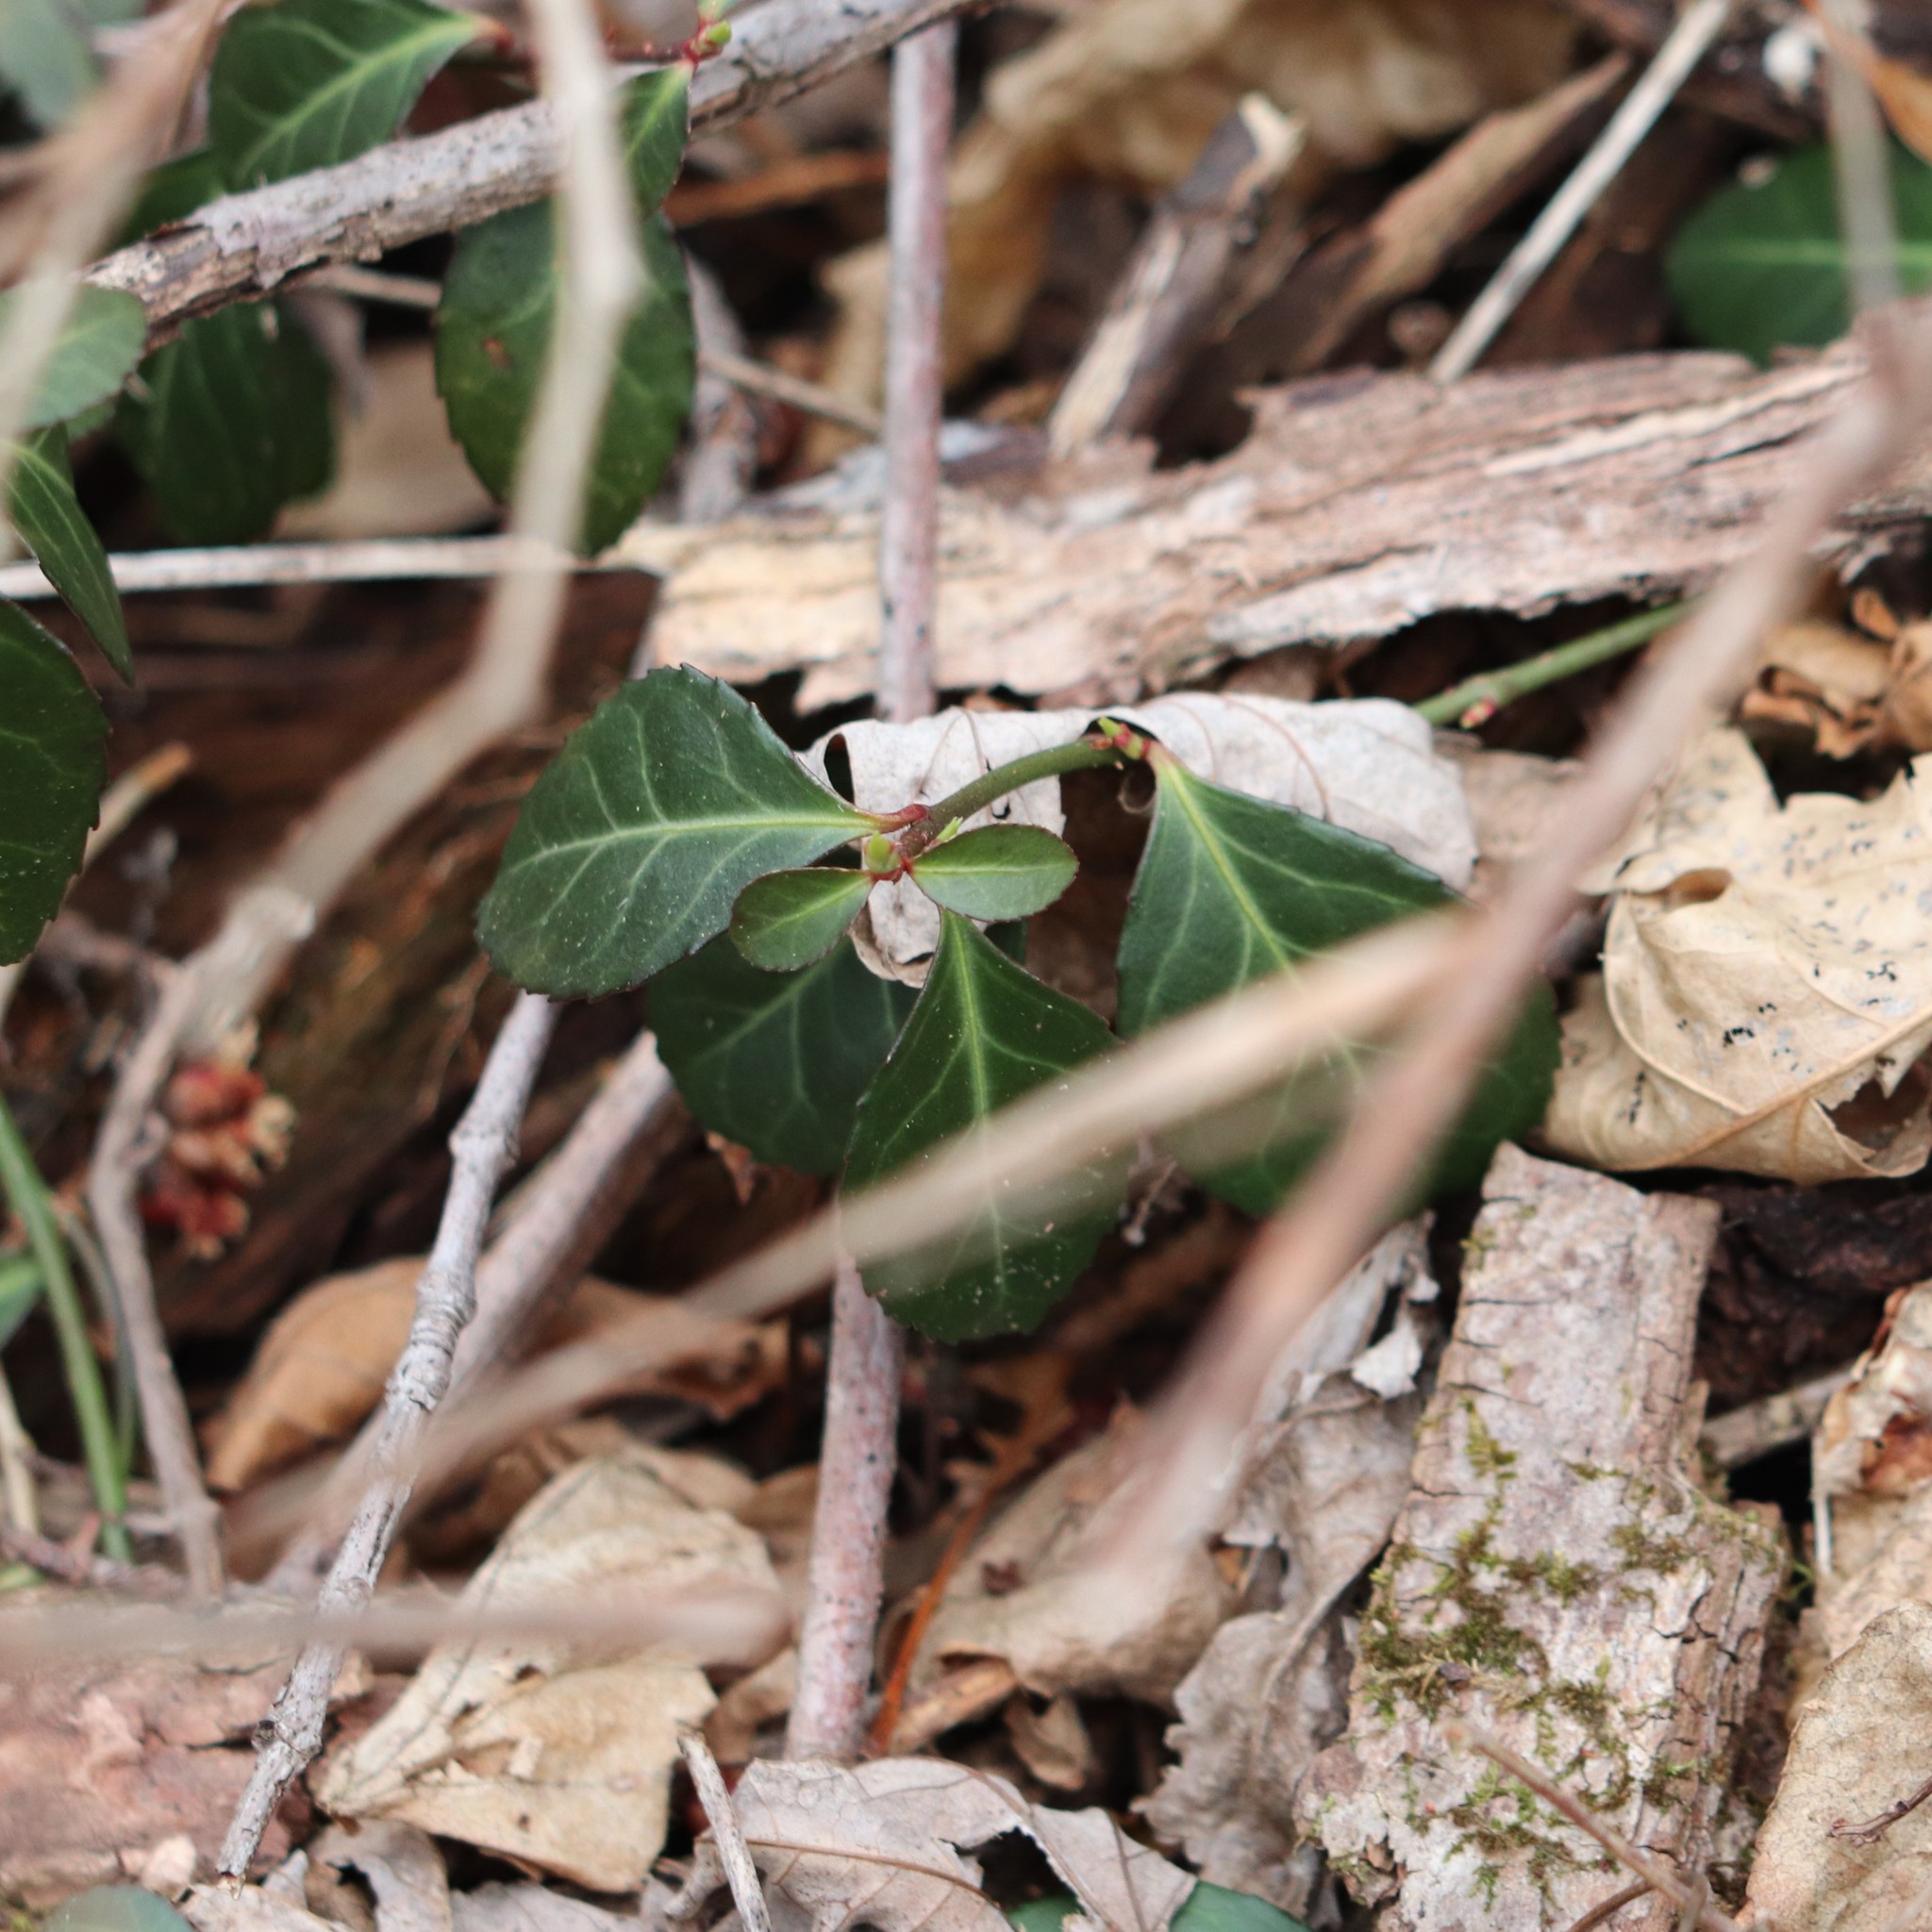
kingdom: Plantae
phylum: Tracheophyta
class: Magnoliopsida
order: Celastrales
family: Celastraceae
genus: Euonymus
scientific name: Euonymus fortunei
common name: Climbing euonymus
